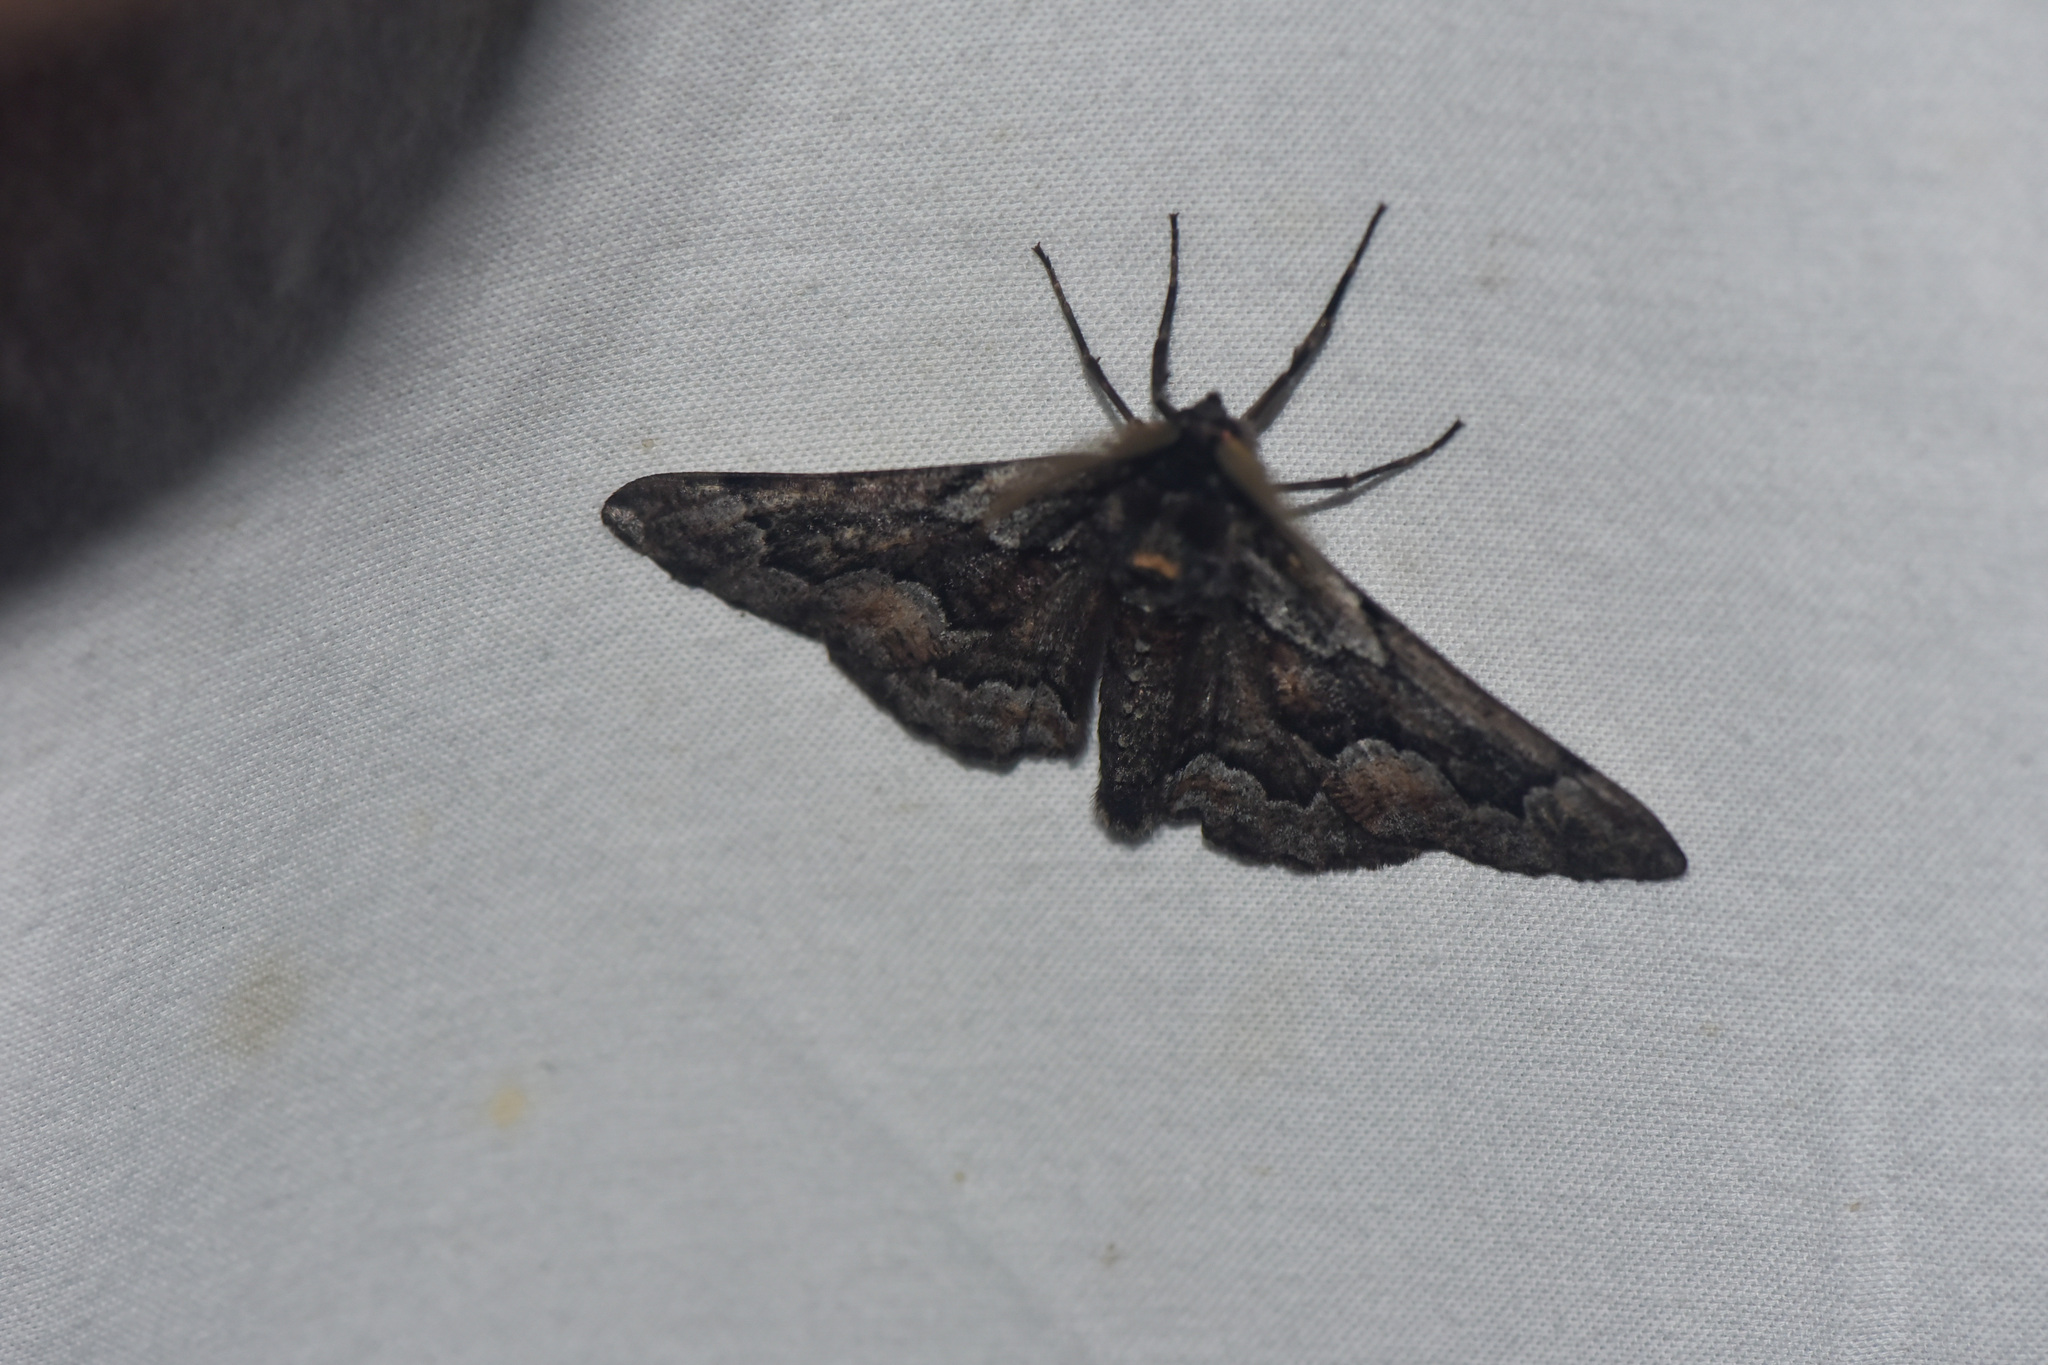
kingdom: Animalia
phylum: Arthropoda
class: Insecta
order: Lepidoptera
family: Geometridae
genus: Phaeoura
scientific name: Phaeoura mexicanaria
